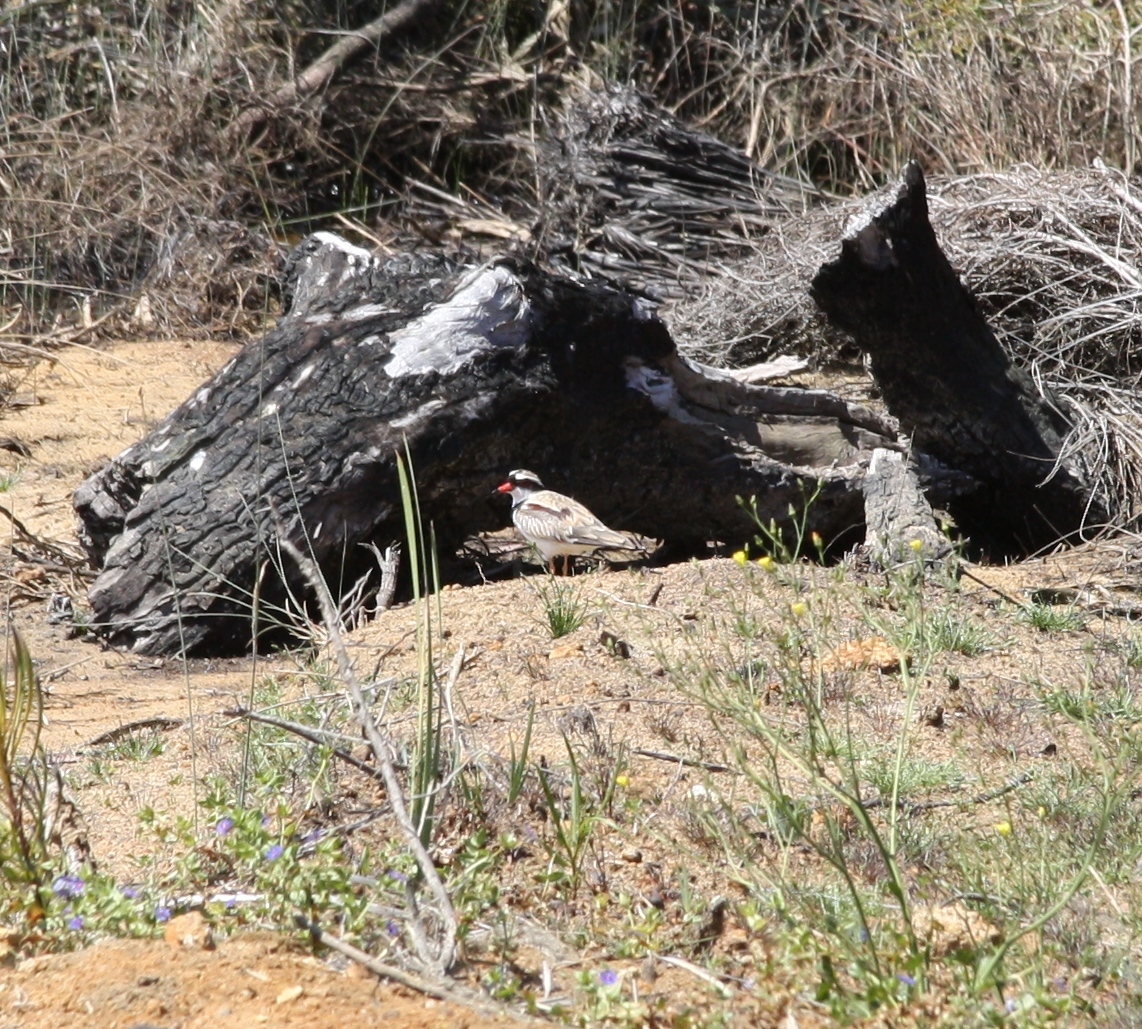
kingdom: Animalia
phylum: Chordata
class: Aves
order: Charadriiformes
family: Charadriidae
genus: Elseyornis
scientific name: Elseyornis melanops
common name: Black-fronted dotterel
